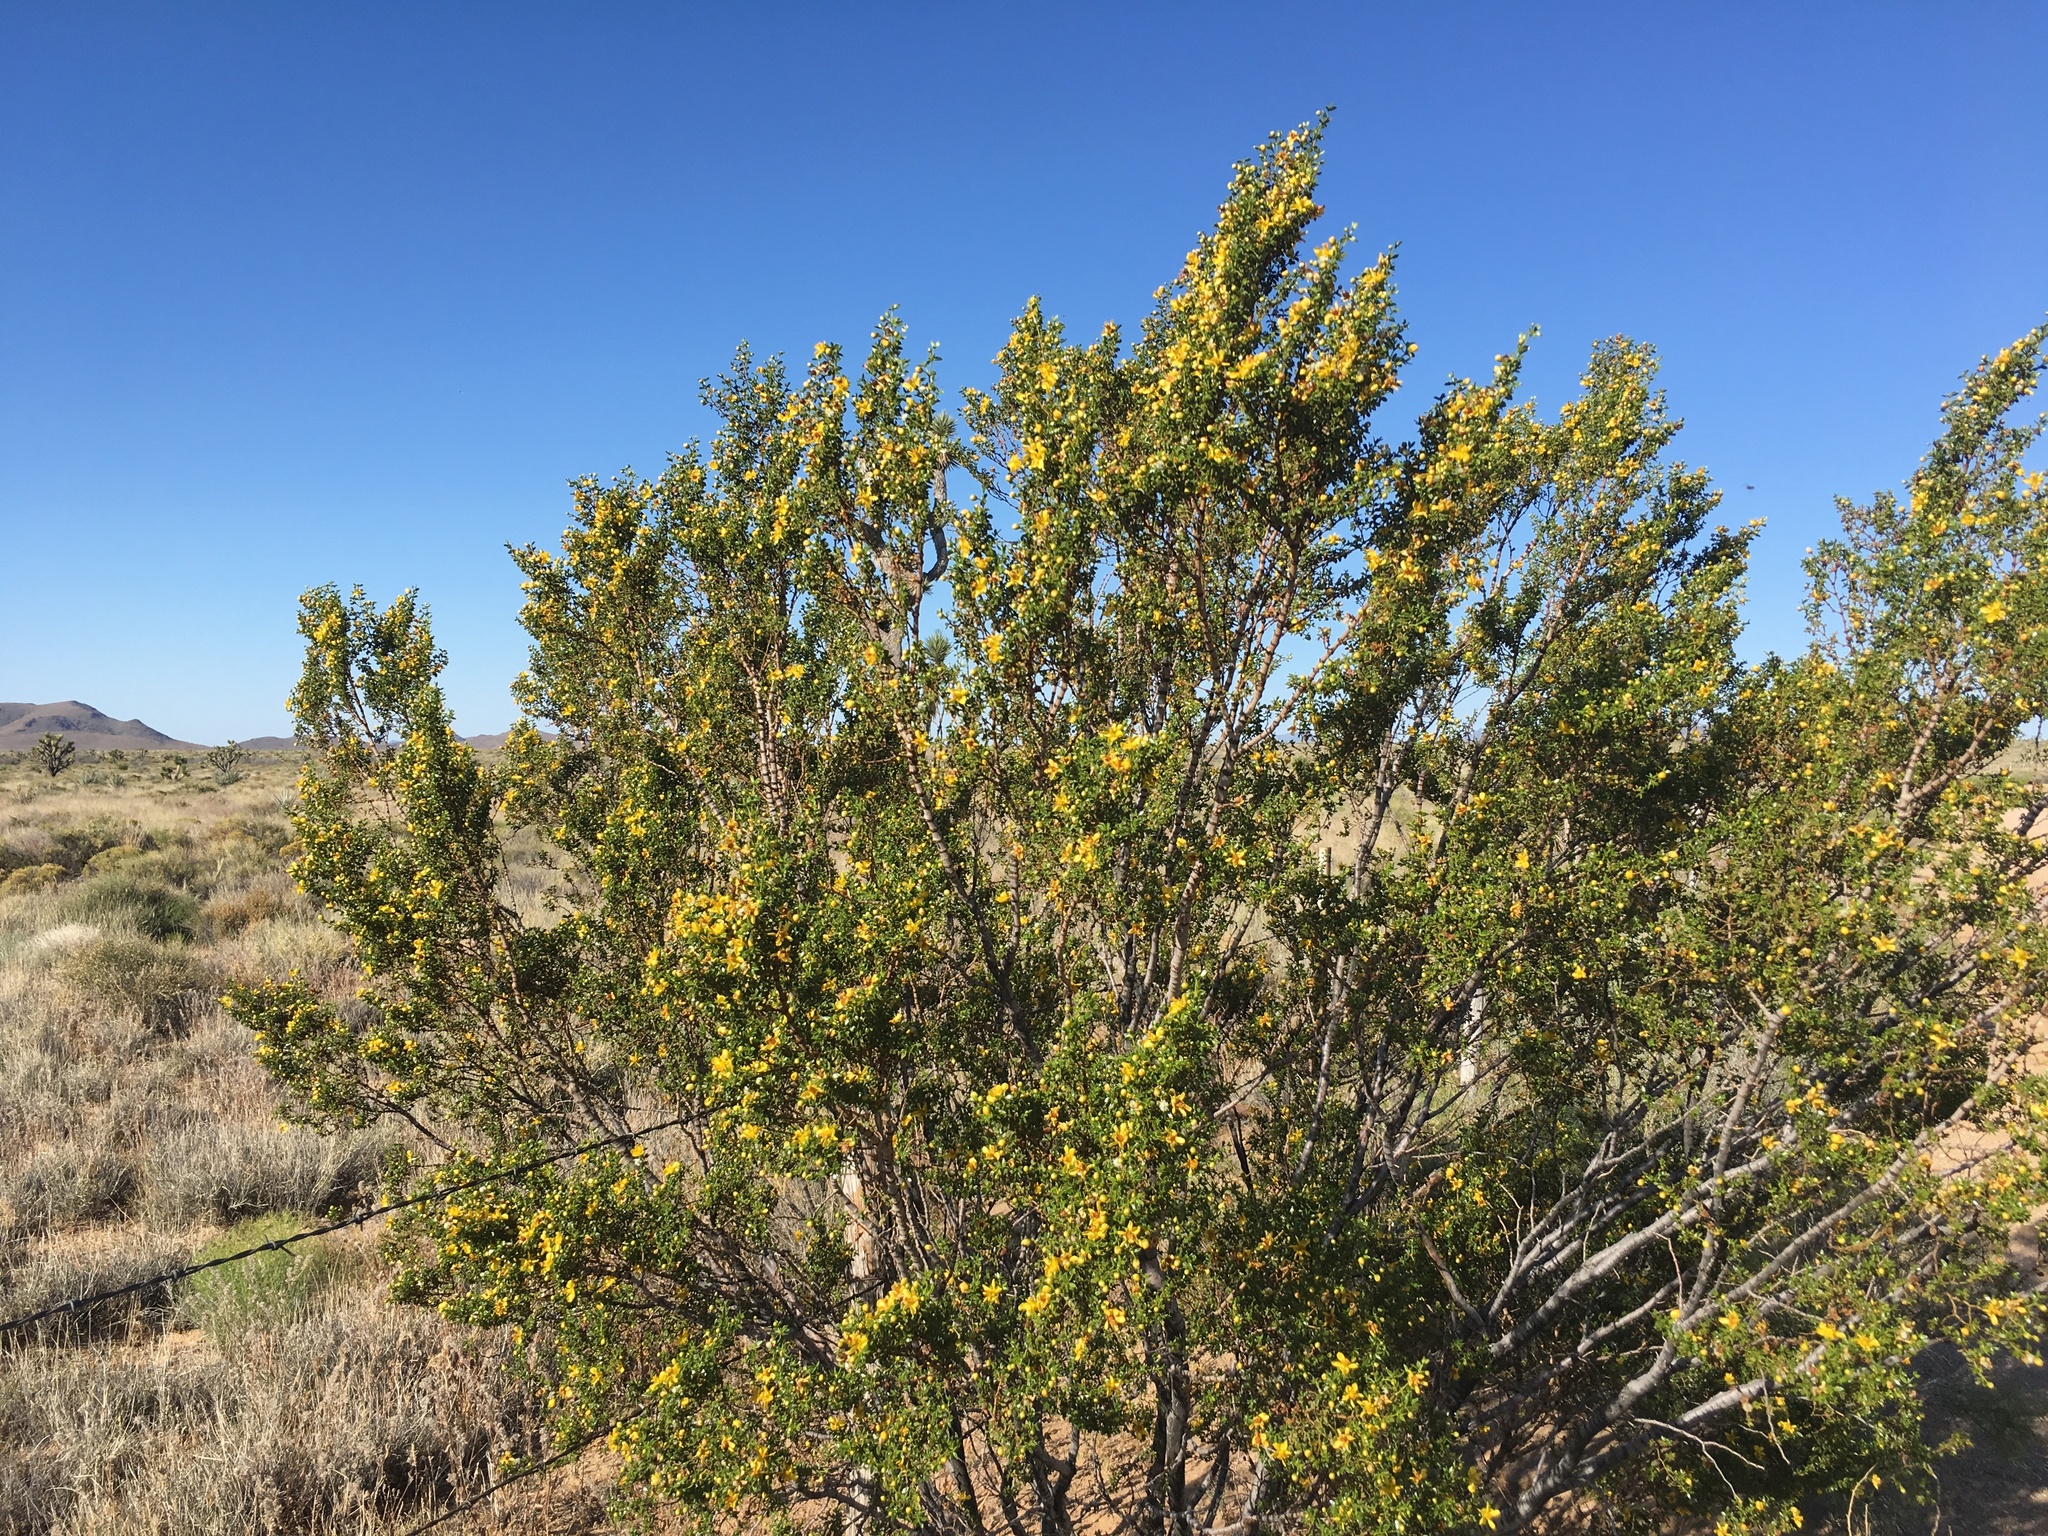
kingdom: Plantae
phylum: Tracheophyta
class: Magnoliopsida
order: Zygophyllales
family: Zygophyllaceae
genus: Larrea
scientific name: Larrea tridentata
